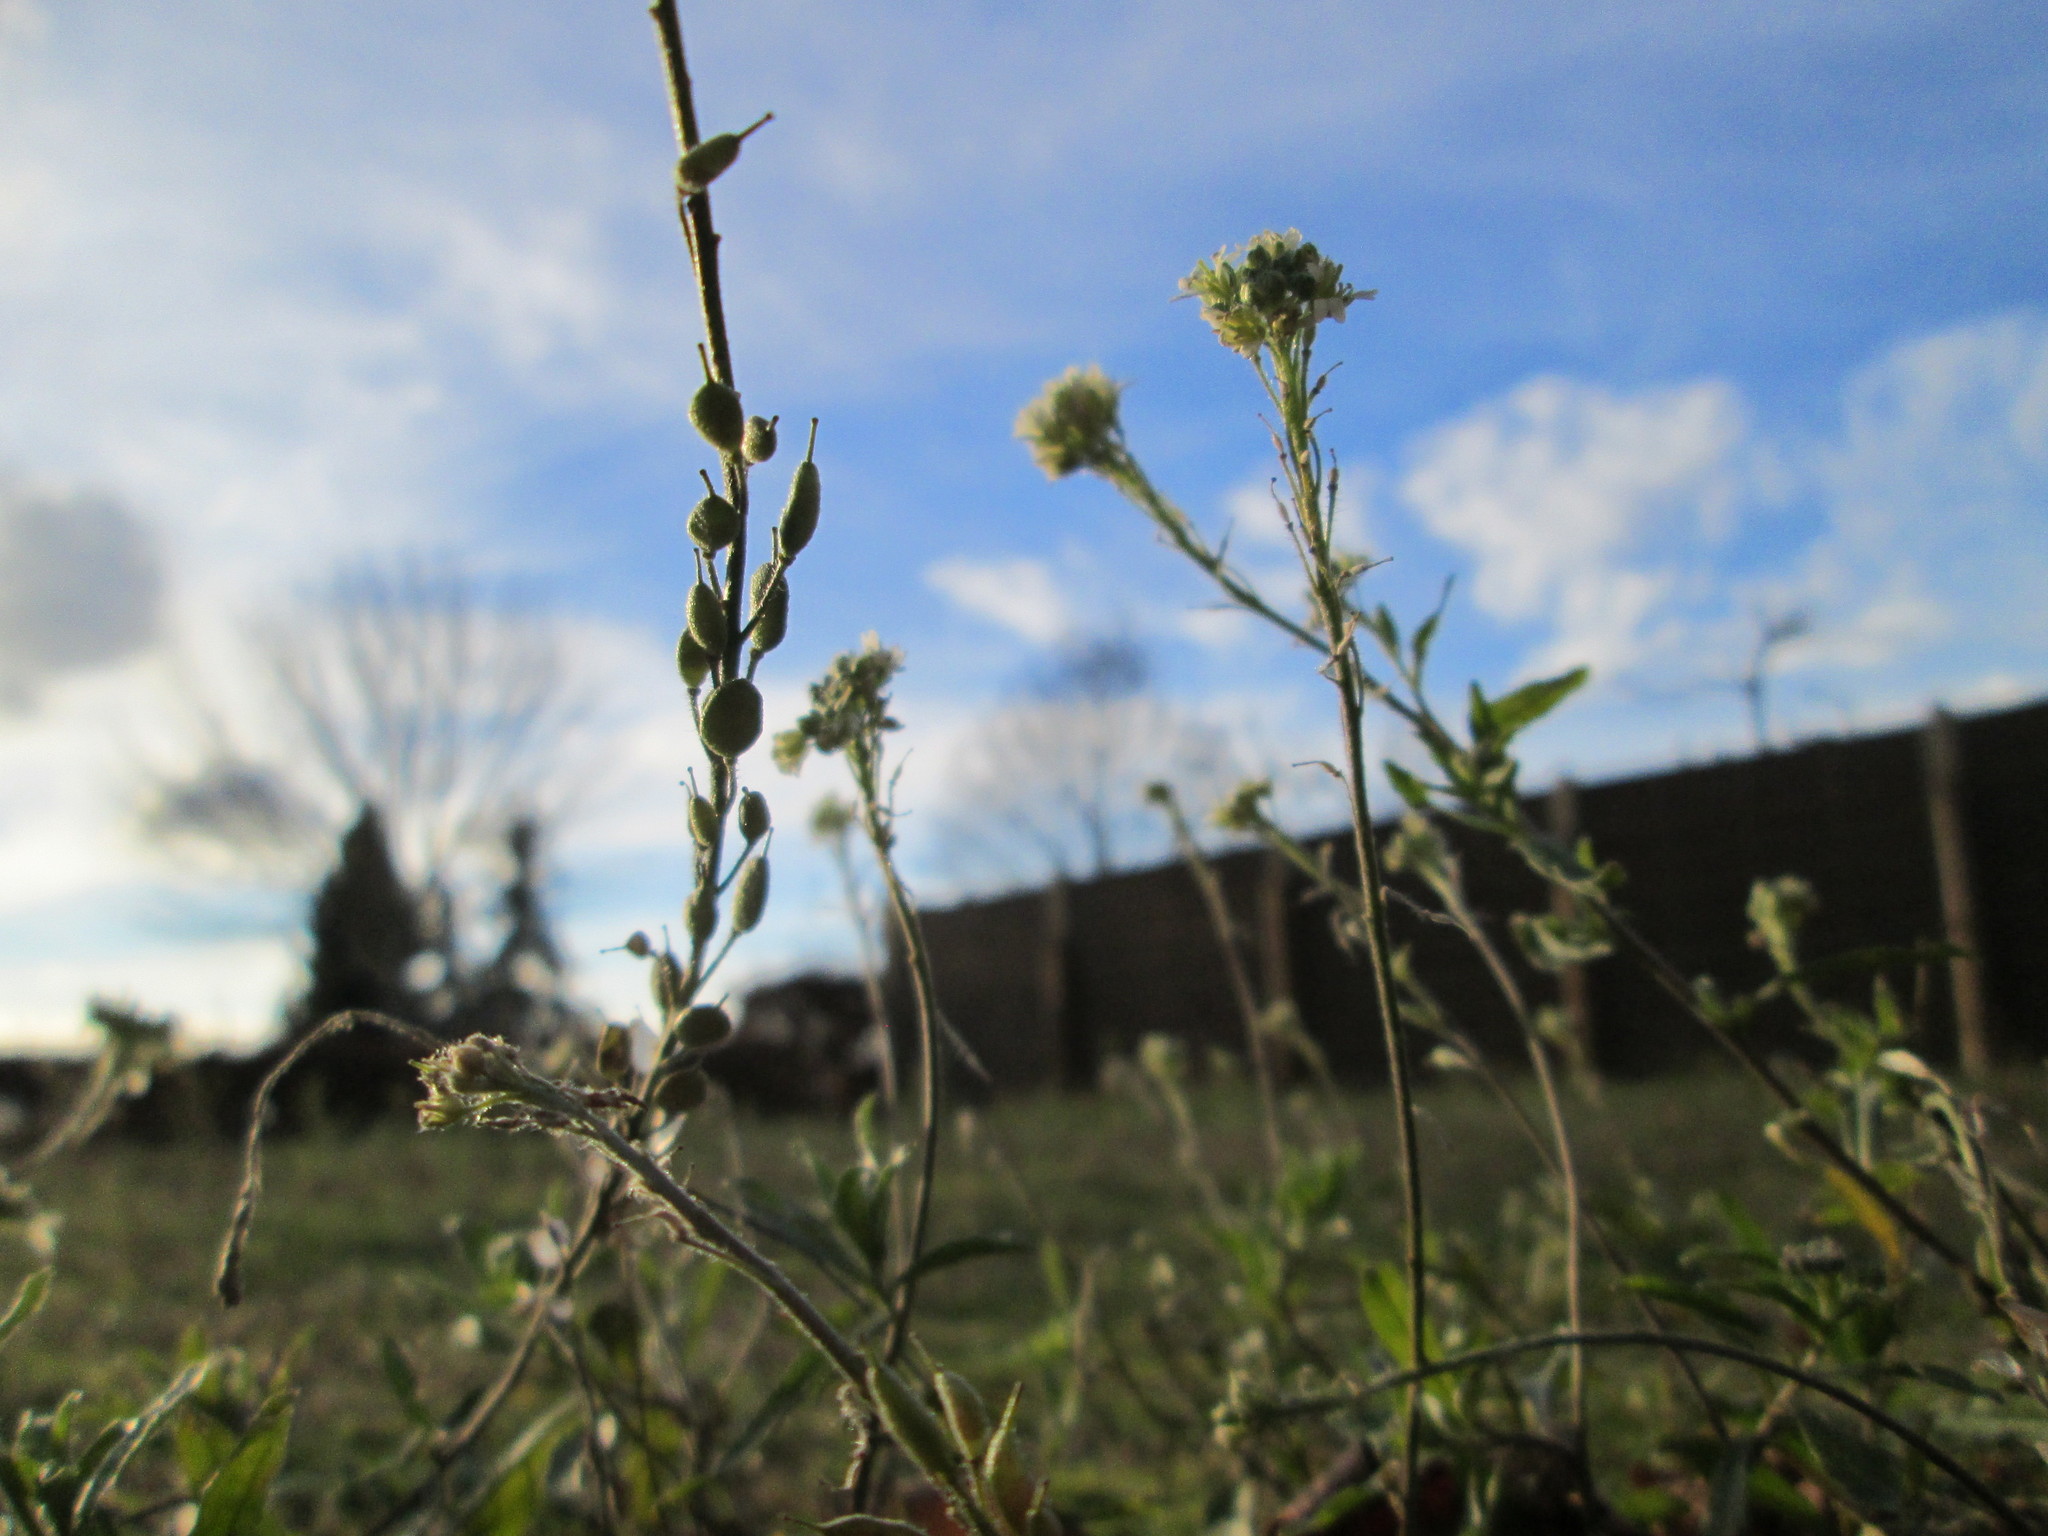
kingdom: Plantae
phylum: Tracheophyta
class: Magnoliopsida
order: Brassicales
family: Brassicaceae
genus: Berteroa
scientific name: Berteroa incana
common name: Hoary alison
